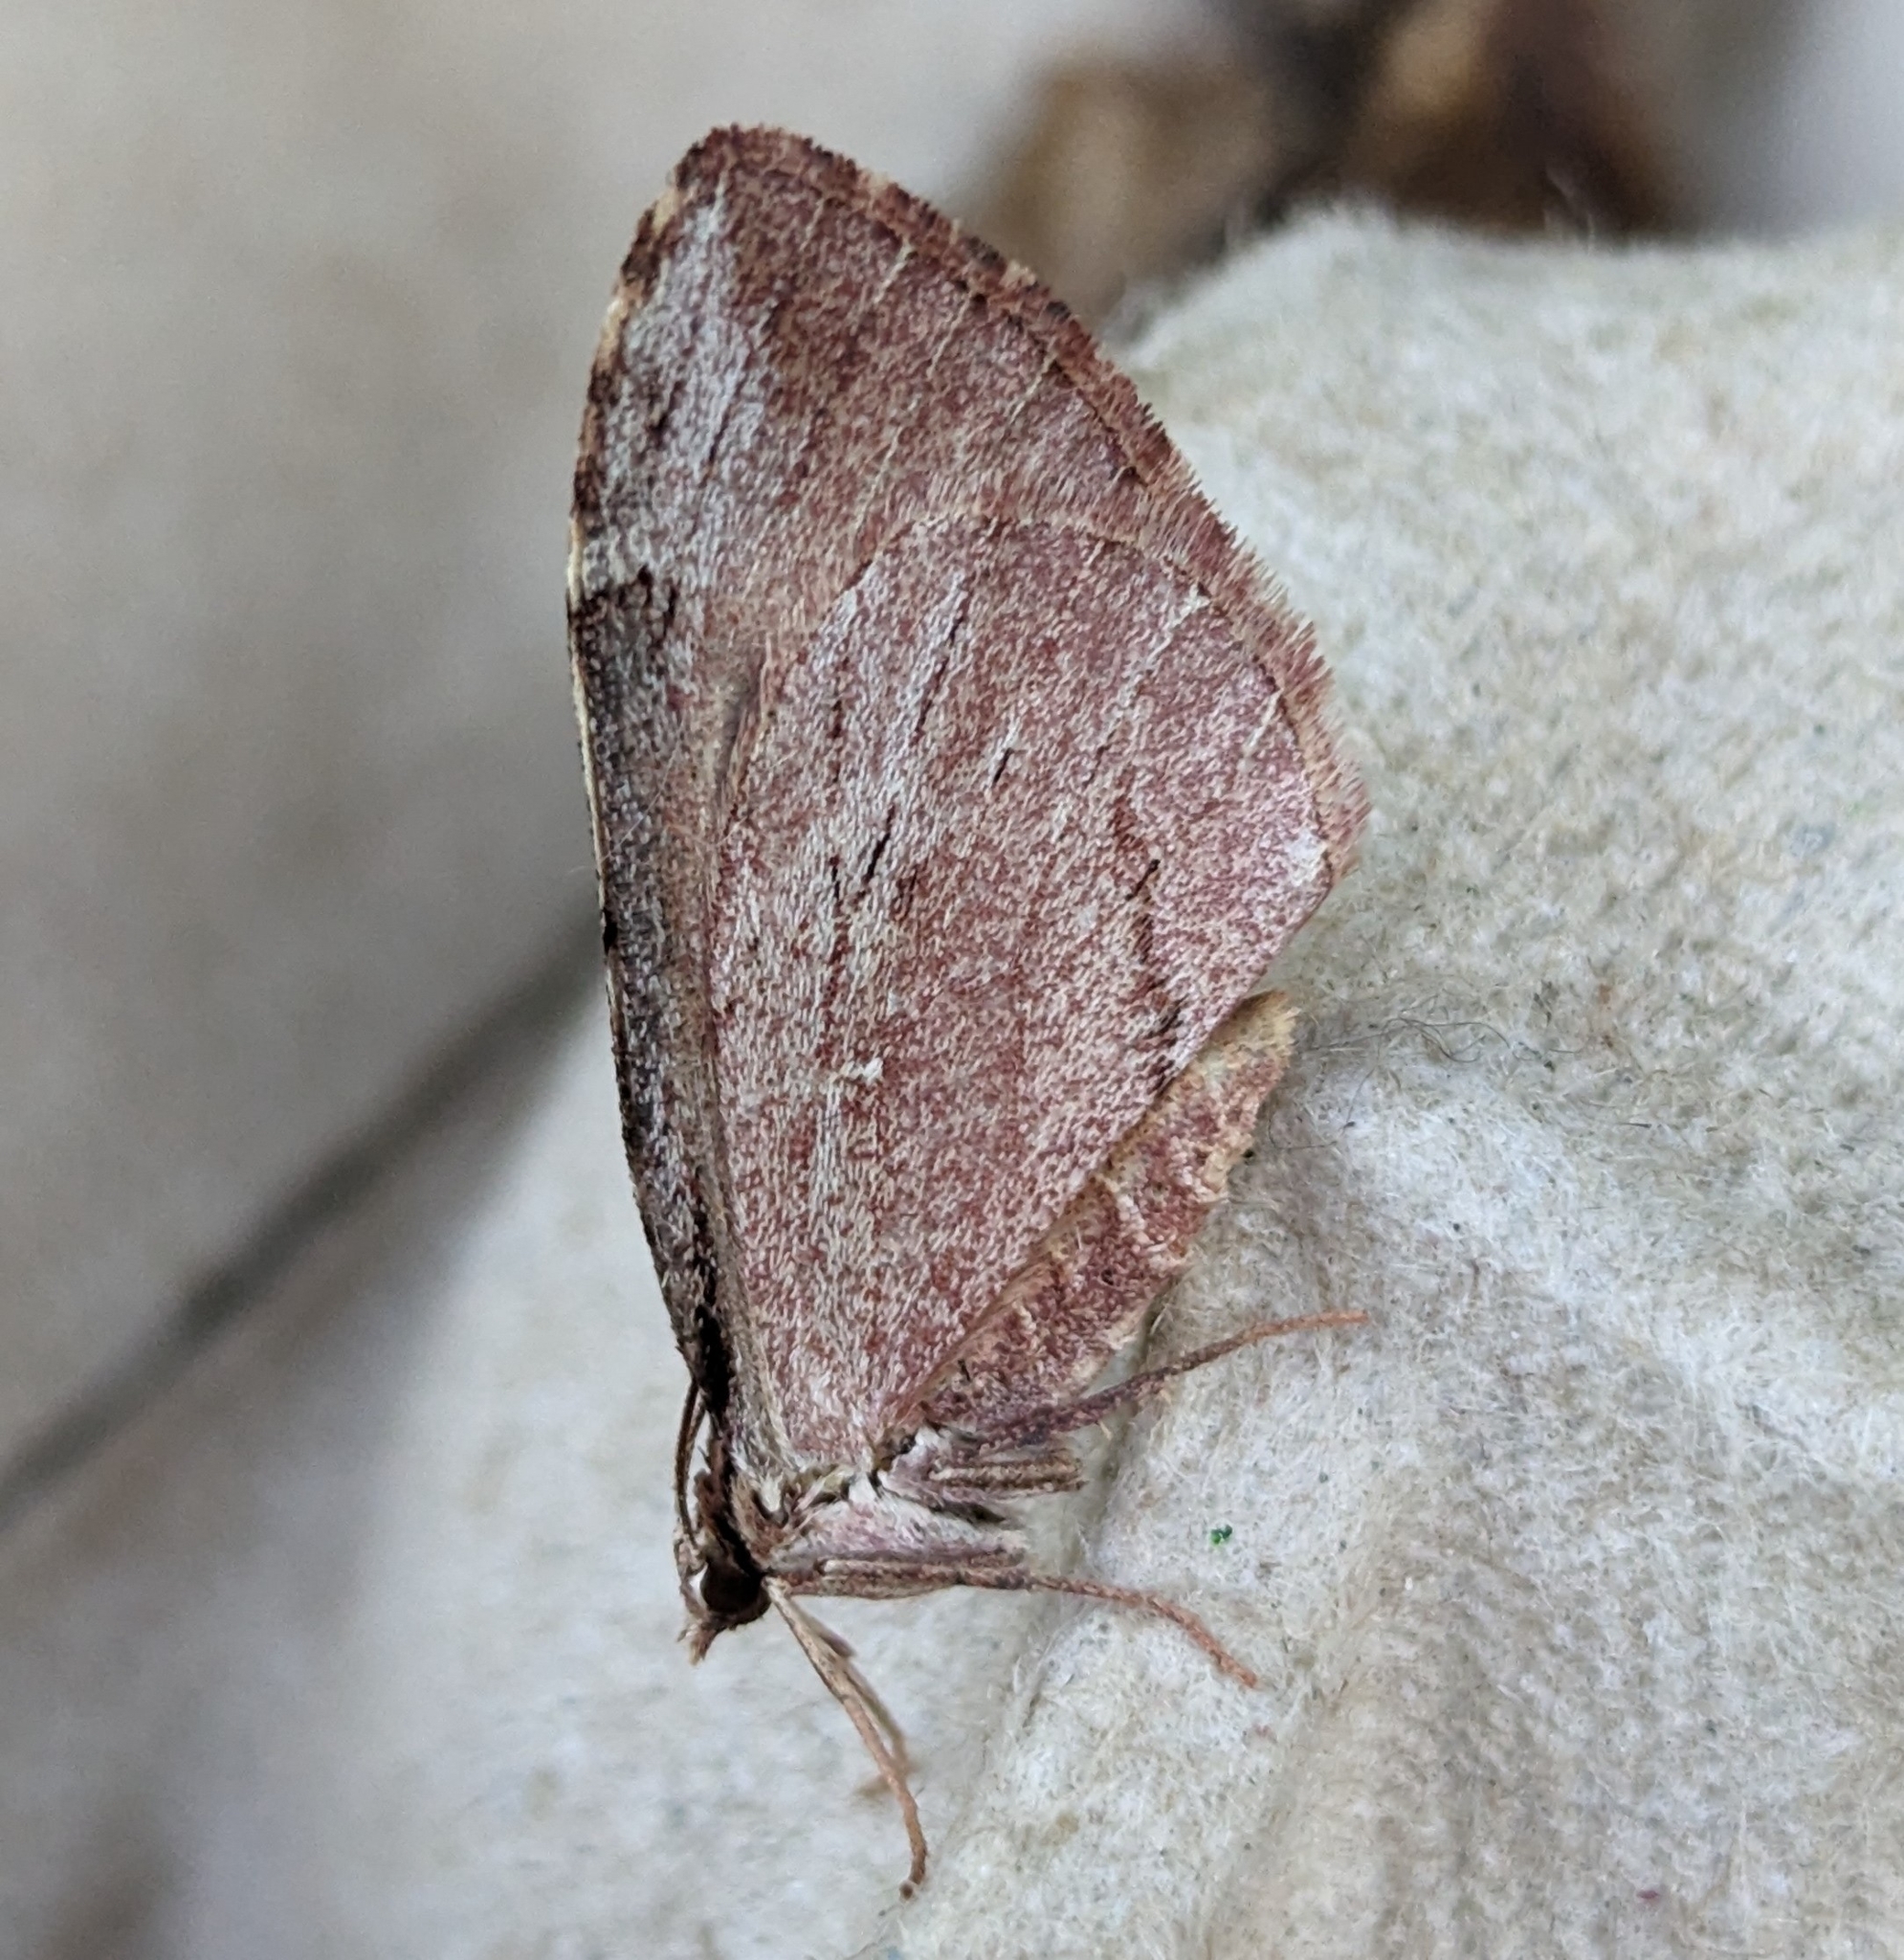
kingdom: Animalia
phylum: Arthropoda
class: Insecta
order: Lepidoptera
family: Geometridae
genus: Stamnoctenis
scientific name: Stamnoctenis pearsalli
